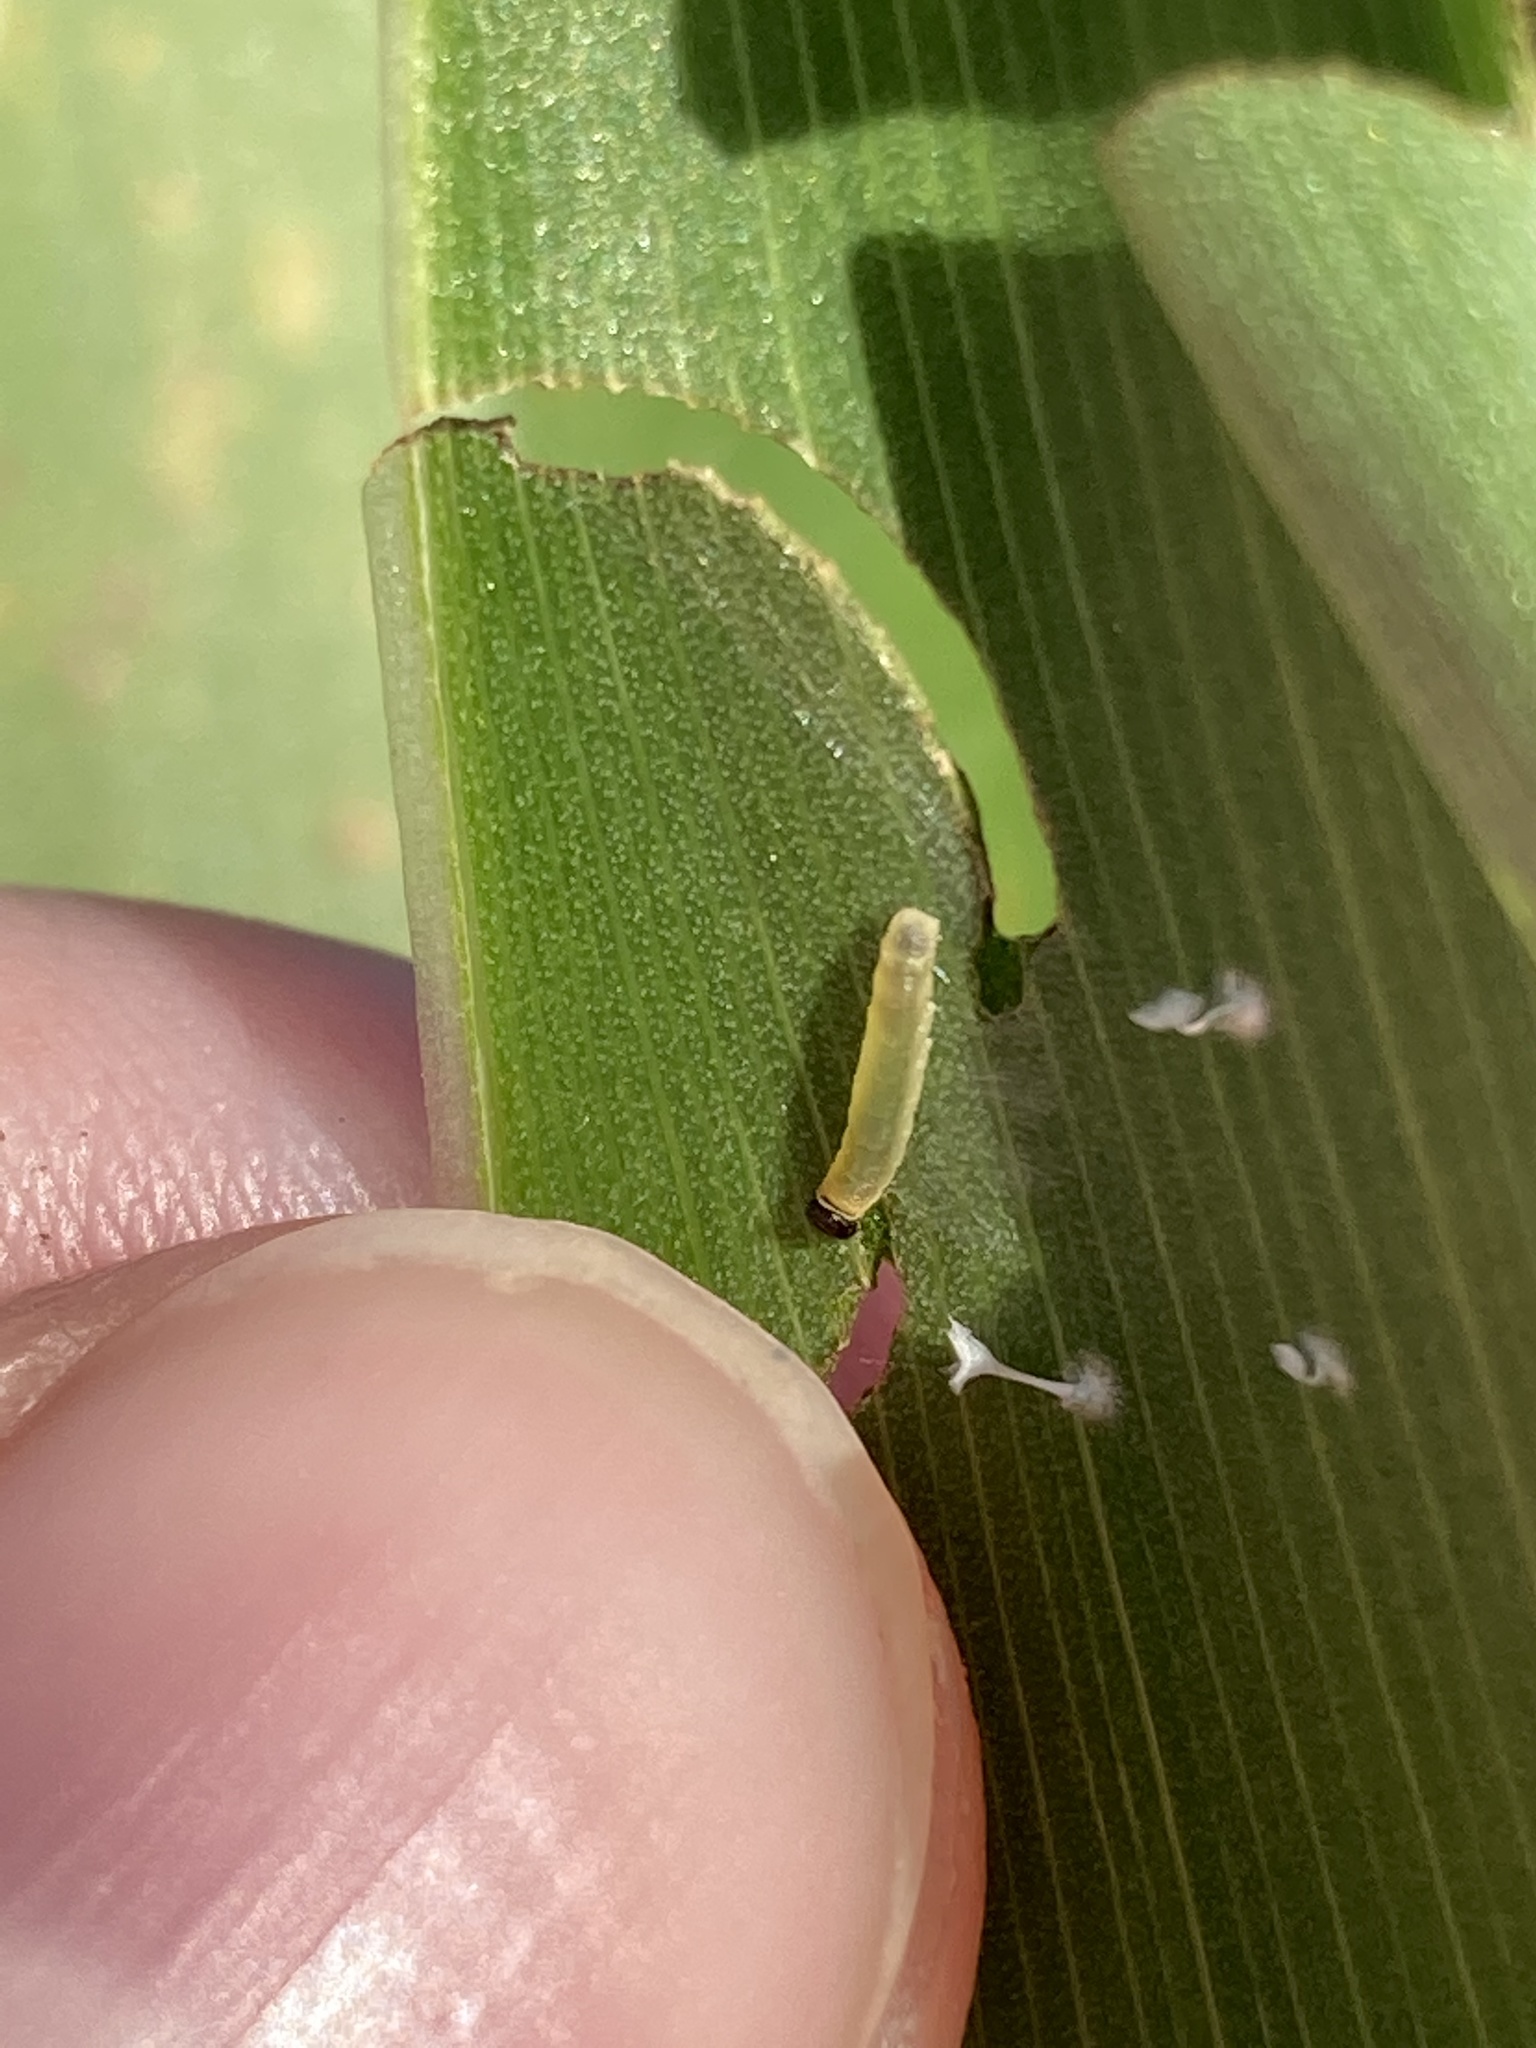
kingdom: Animalia
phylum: Arthropoda
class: Insecta
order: Lepidoptera
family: Hesperiidae
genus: Calpodes
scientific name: Calpodes ethlius
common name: Brazilian skipper
